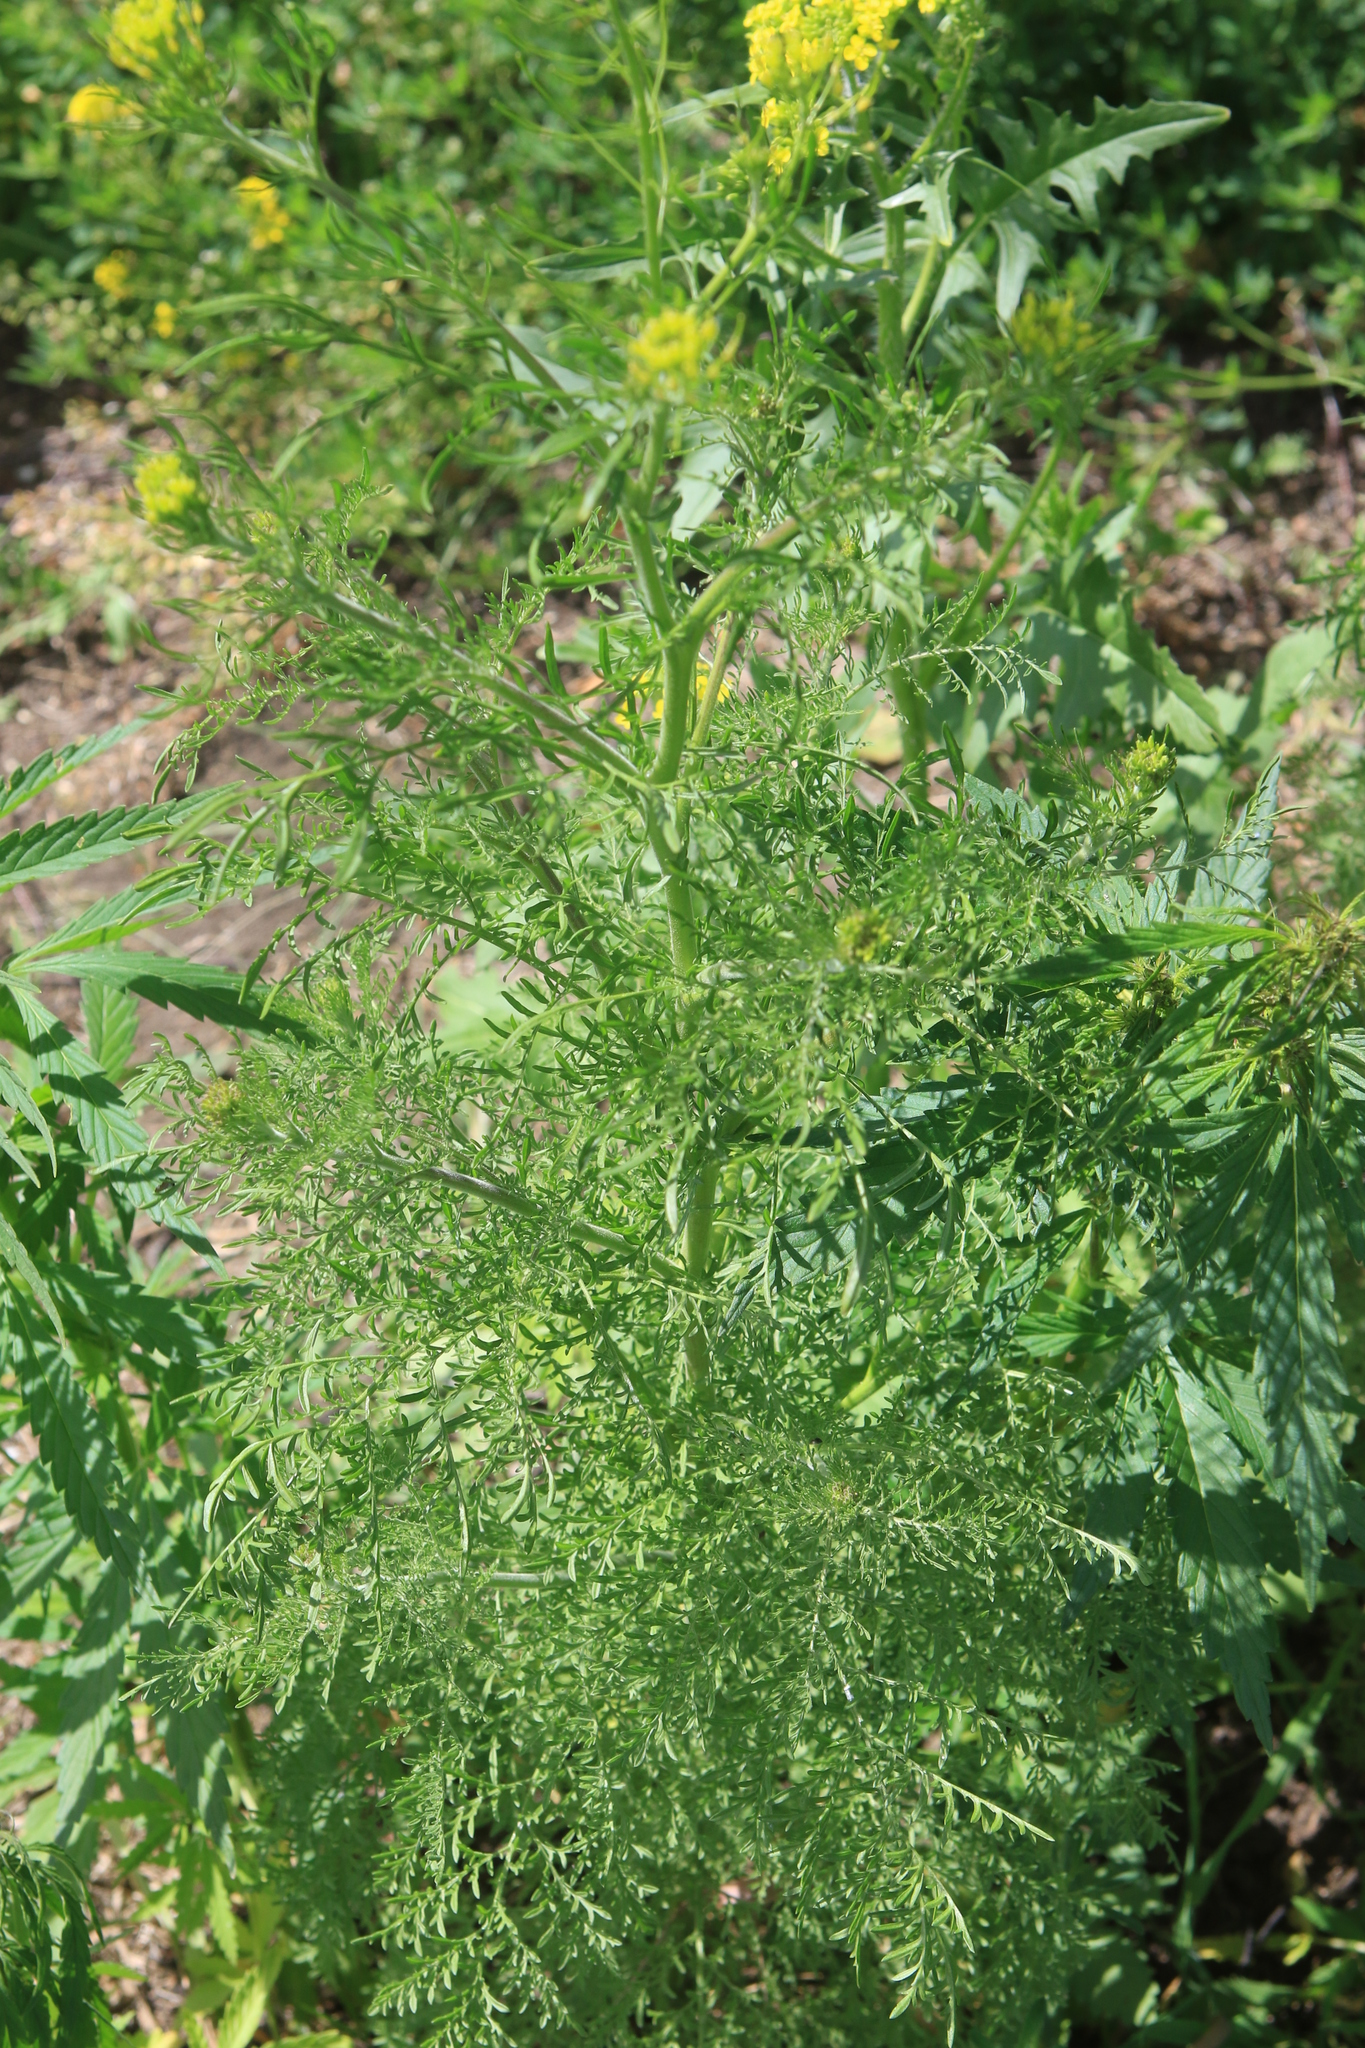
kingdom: Plantae
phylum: Tracheophyta
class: Magnoliopsida
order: Brassicales
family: Brassicaceae
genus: Descurainia
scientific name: Descurainia sophia
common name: Flixweed
